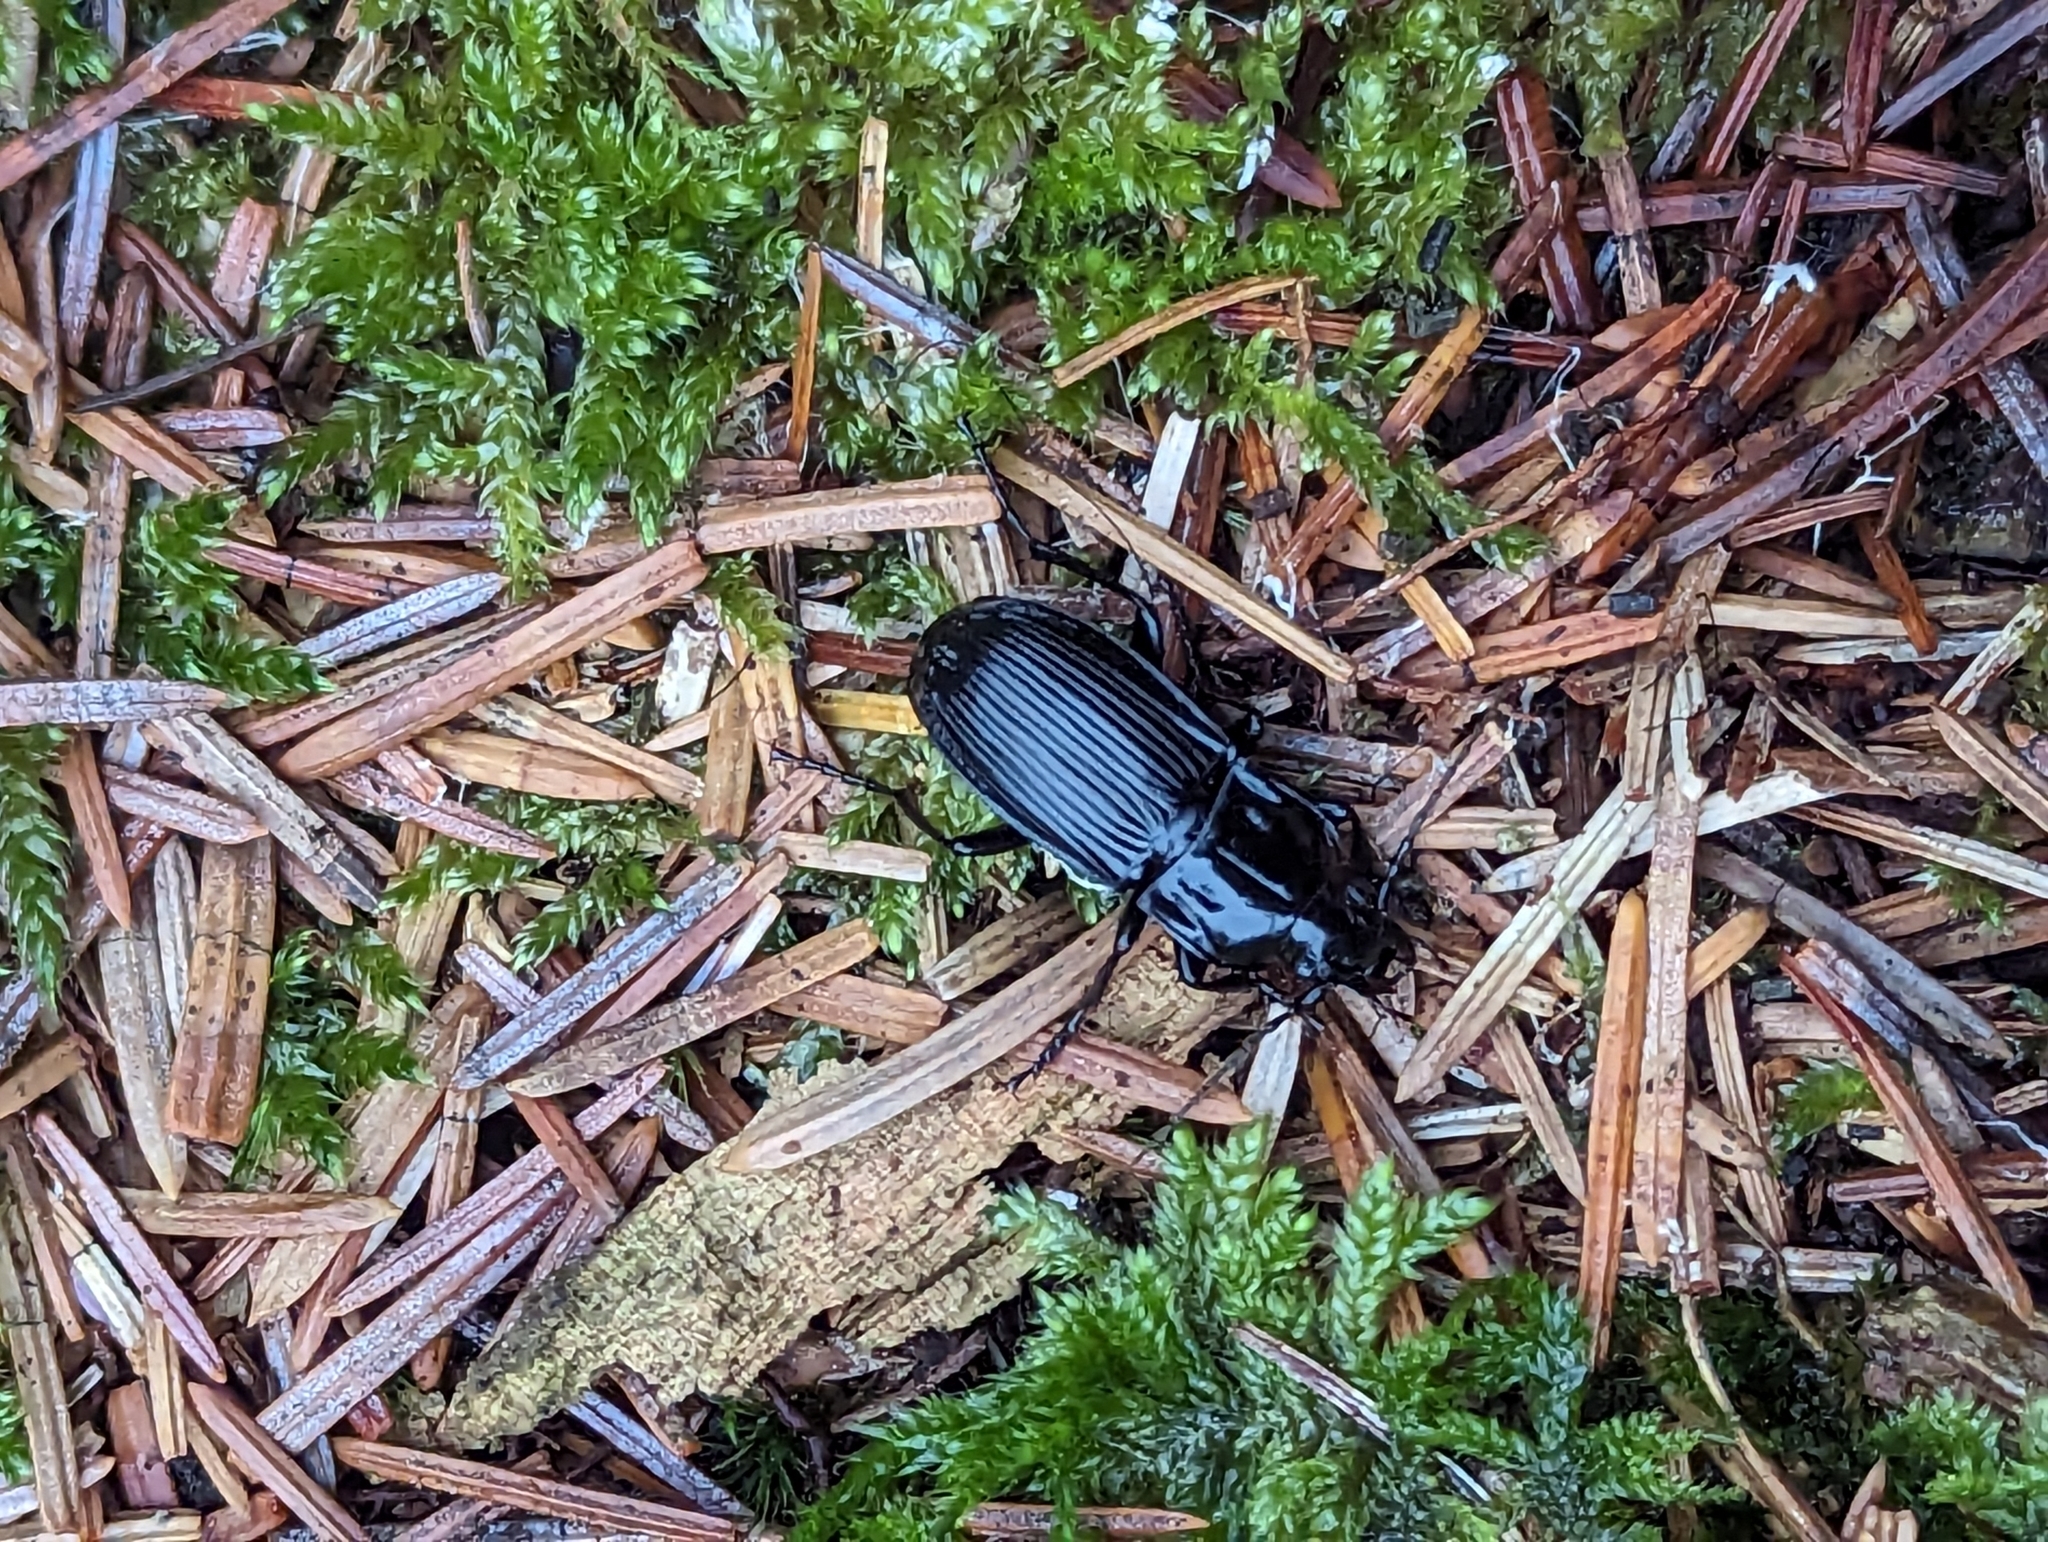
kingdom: Animalia
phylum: Arthropoda
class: Insecta
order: Coleoptera
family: Carabidae
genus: Abax
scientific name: Abax parallelepipedus
